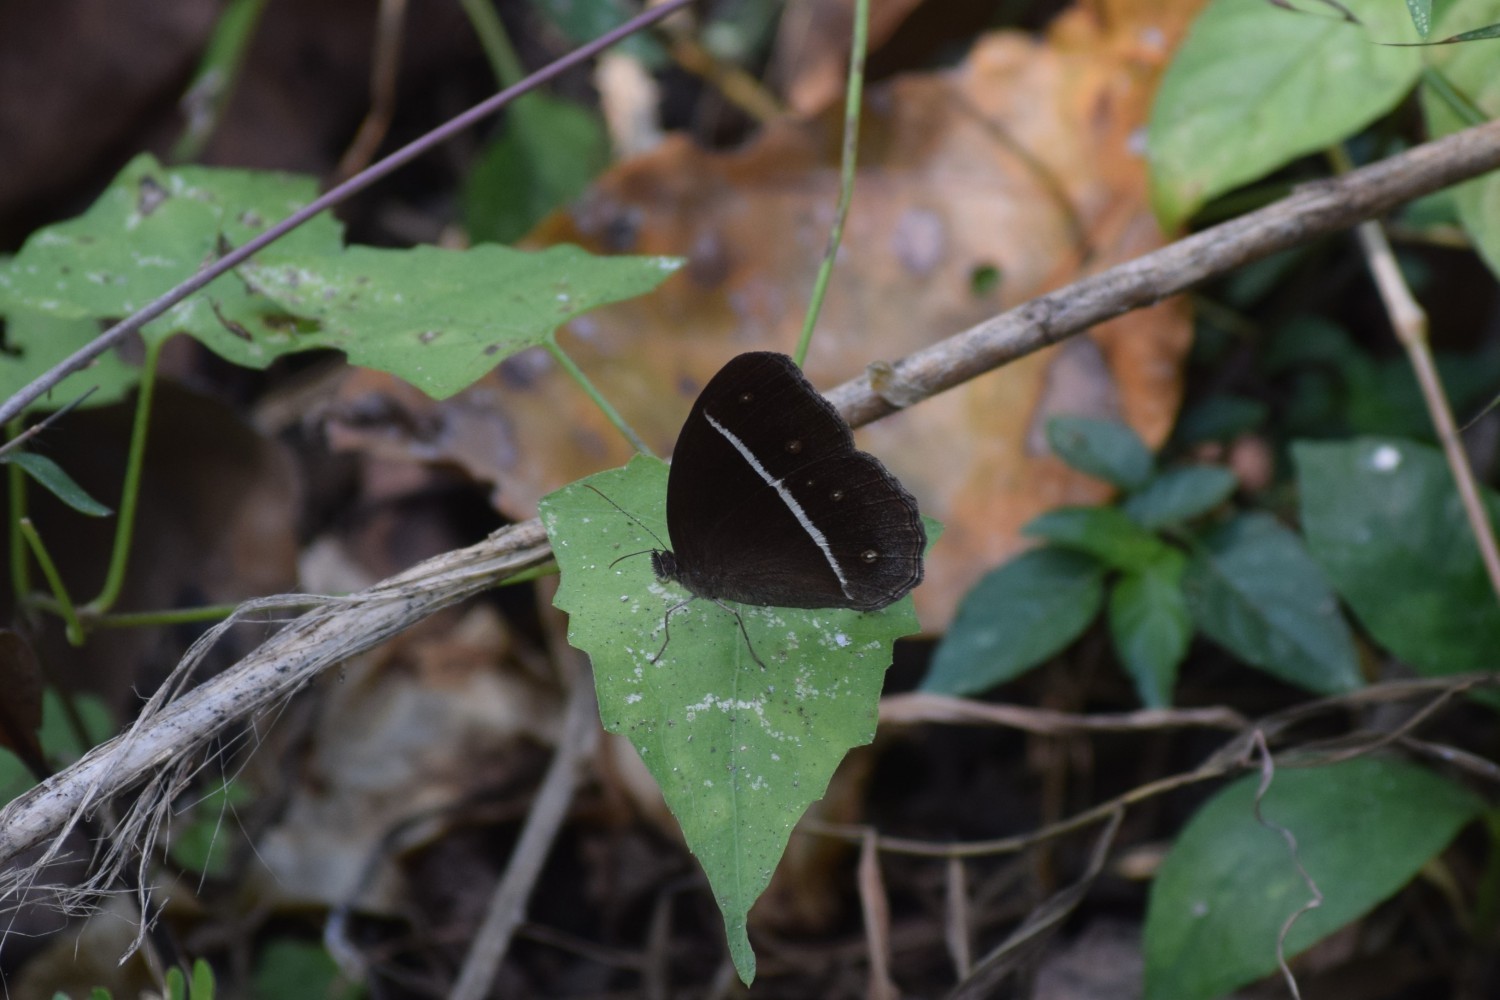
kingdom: Animalia
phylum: Arthropoda
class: Insecta
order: Lepidoptera
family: Nymphalidae
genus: Orsotriaena
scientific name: Orsotriaena medus
